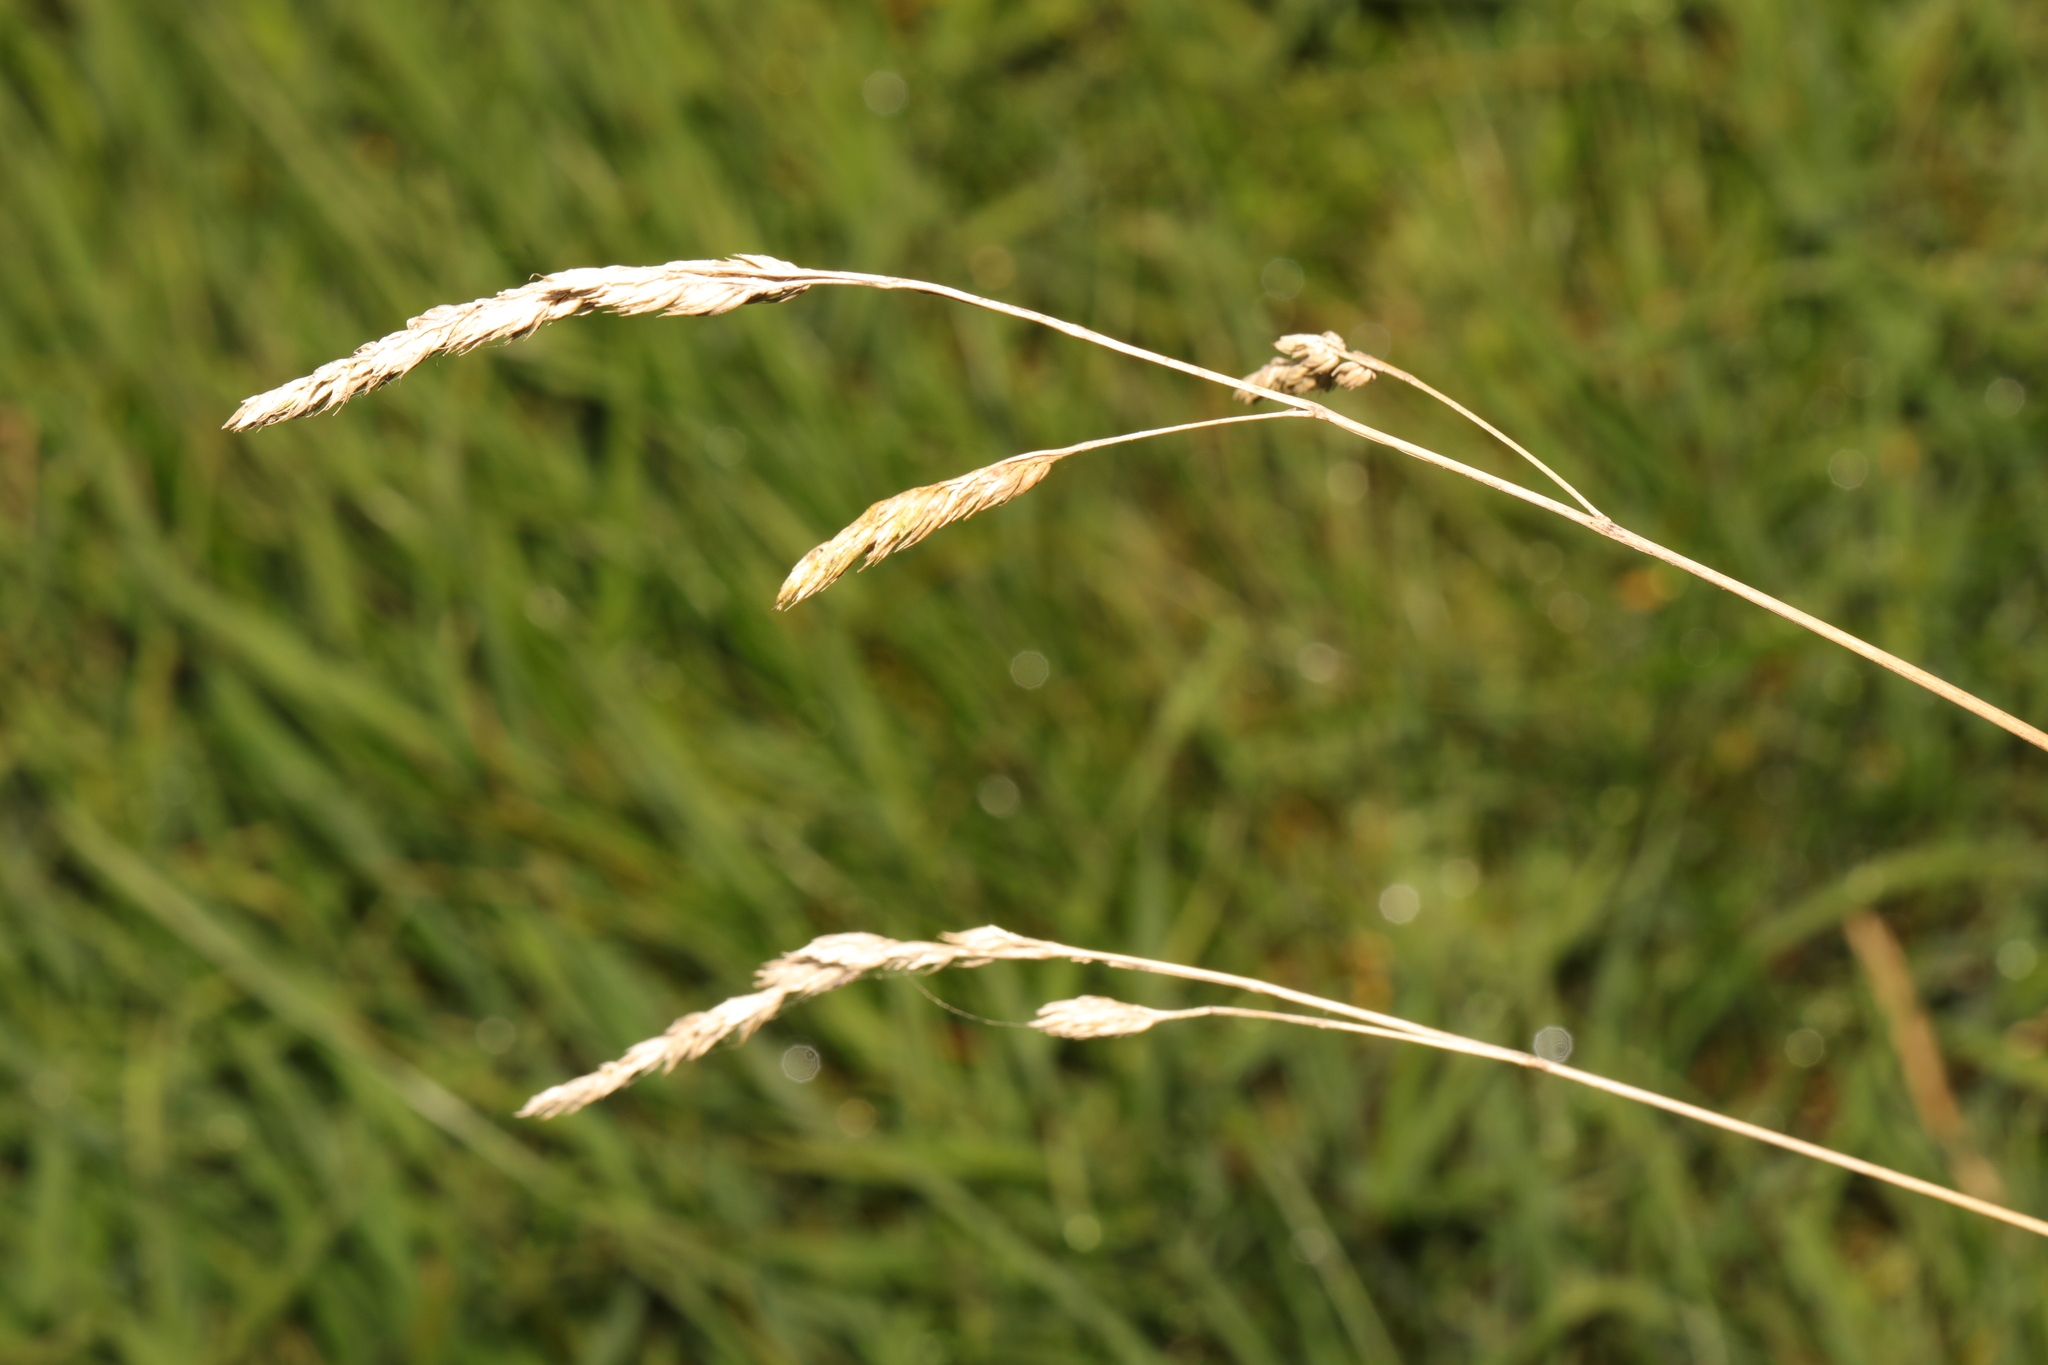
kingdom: Plantae
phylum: Tracheophyta
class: Liliopsida
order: Poales
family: Poaceae
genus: Dactylis
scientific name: Dactylis glomerata
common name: Orchardgrass
